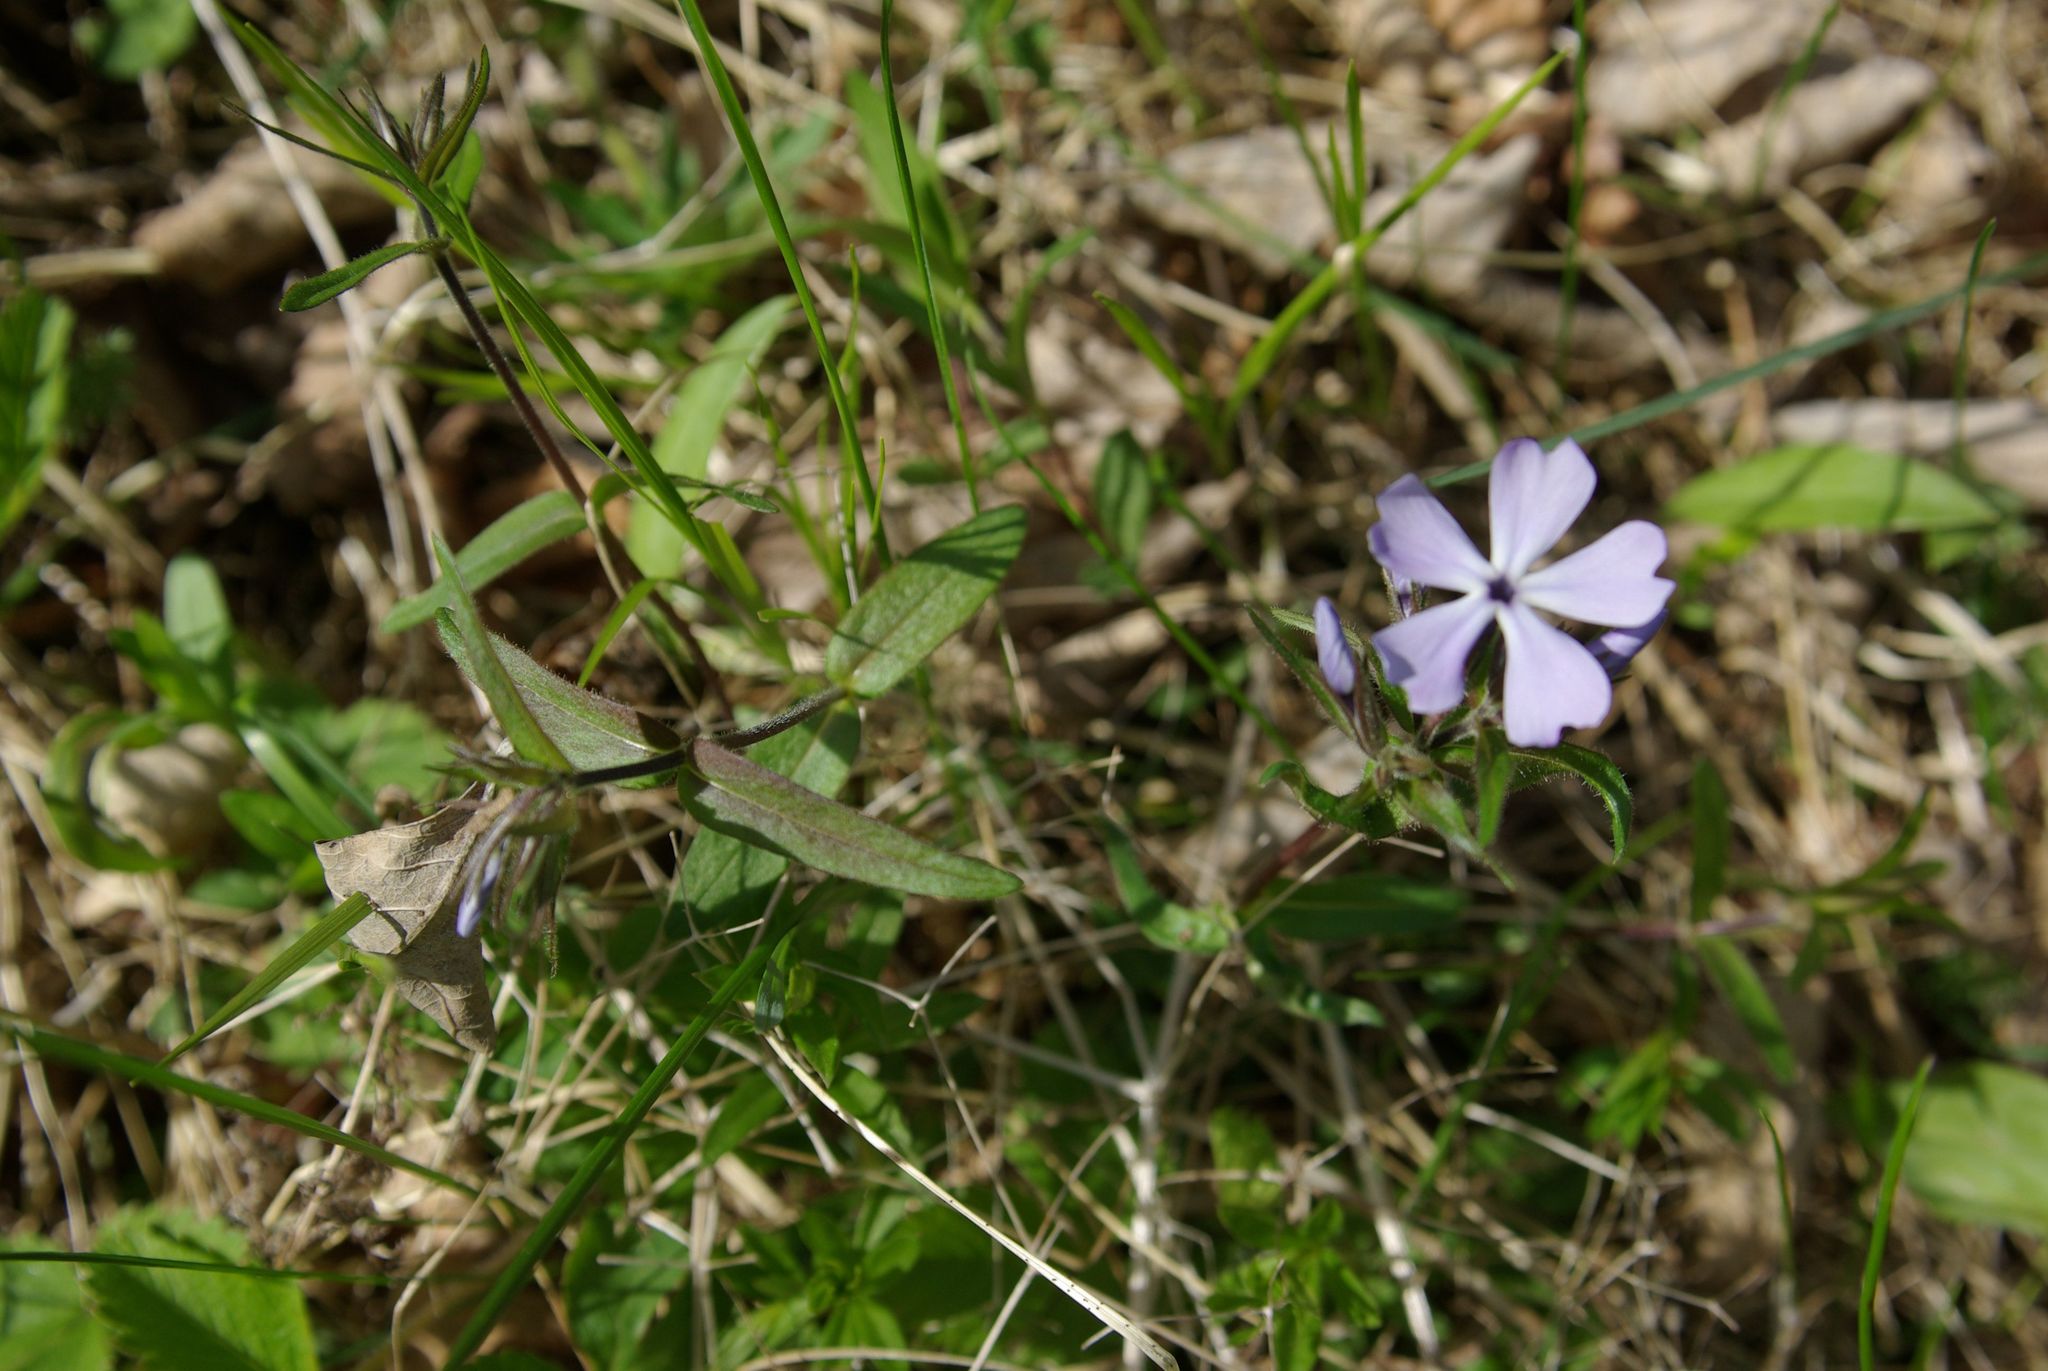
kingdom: Plantae
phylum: Tracheophyta
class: Magnoliopsida
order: Ericales
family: Polemoniaceae
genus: Phlox
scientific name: Phlox divaricata
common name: Blue phlox
